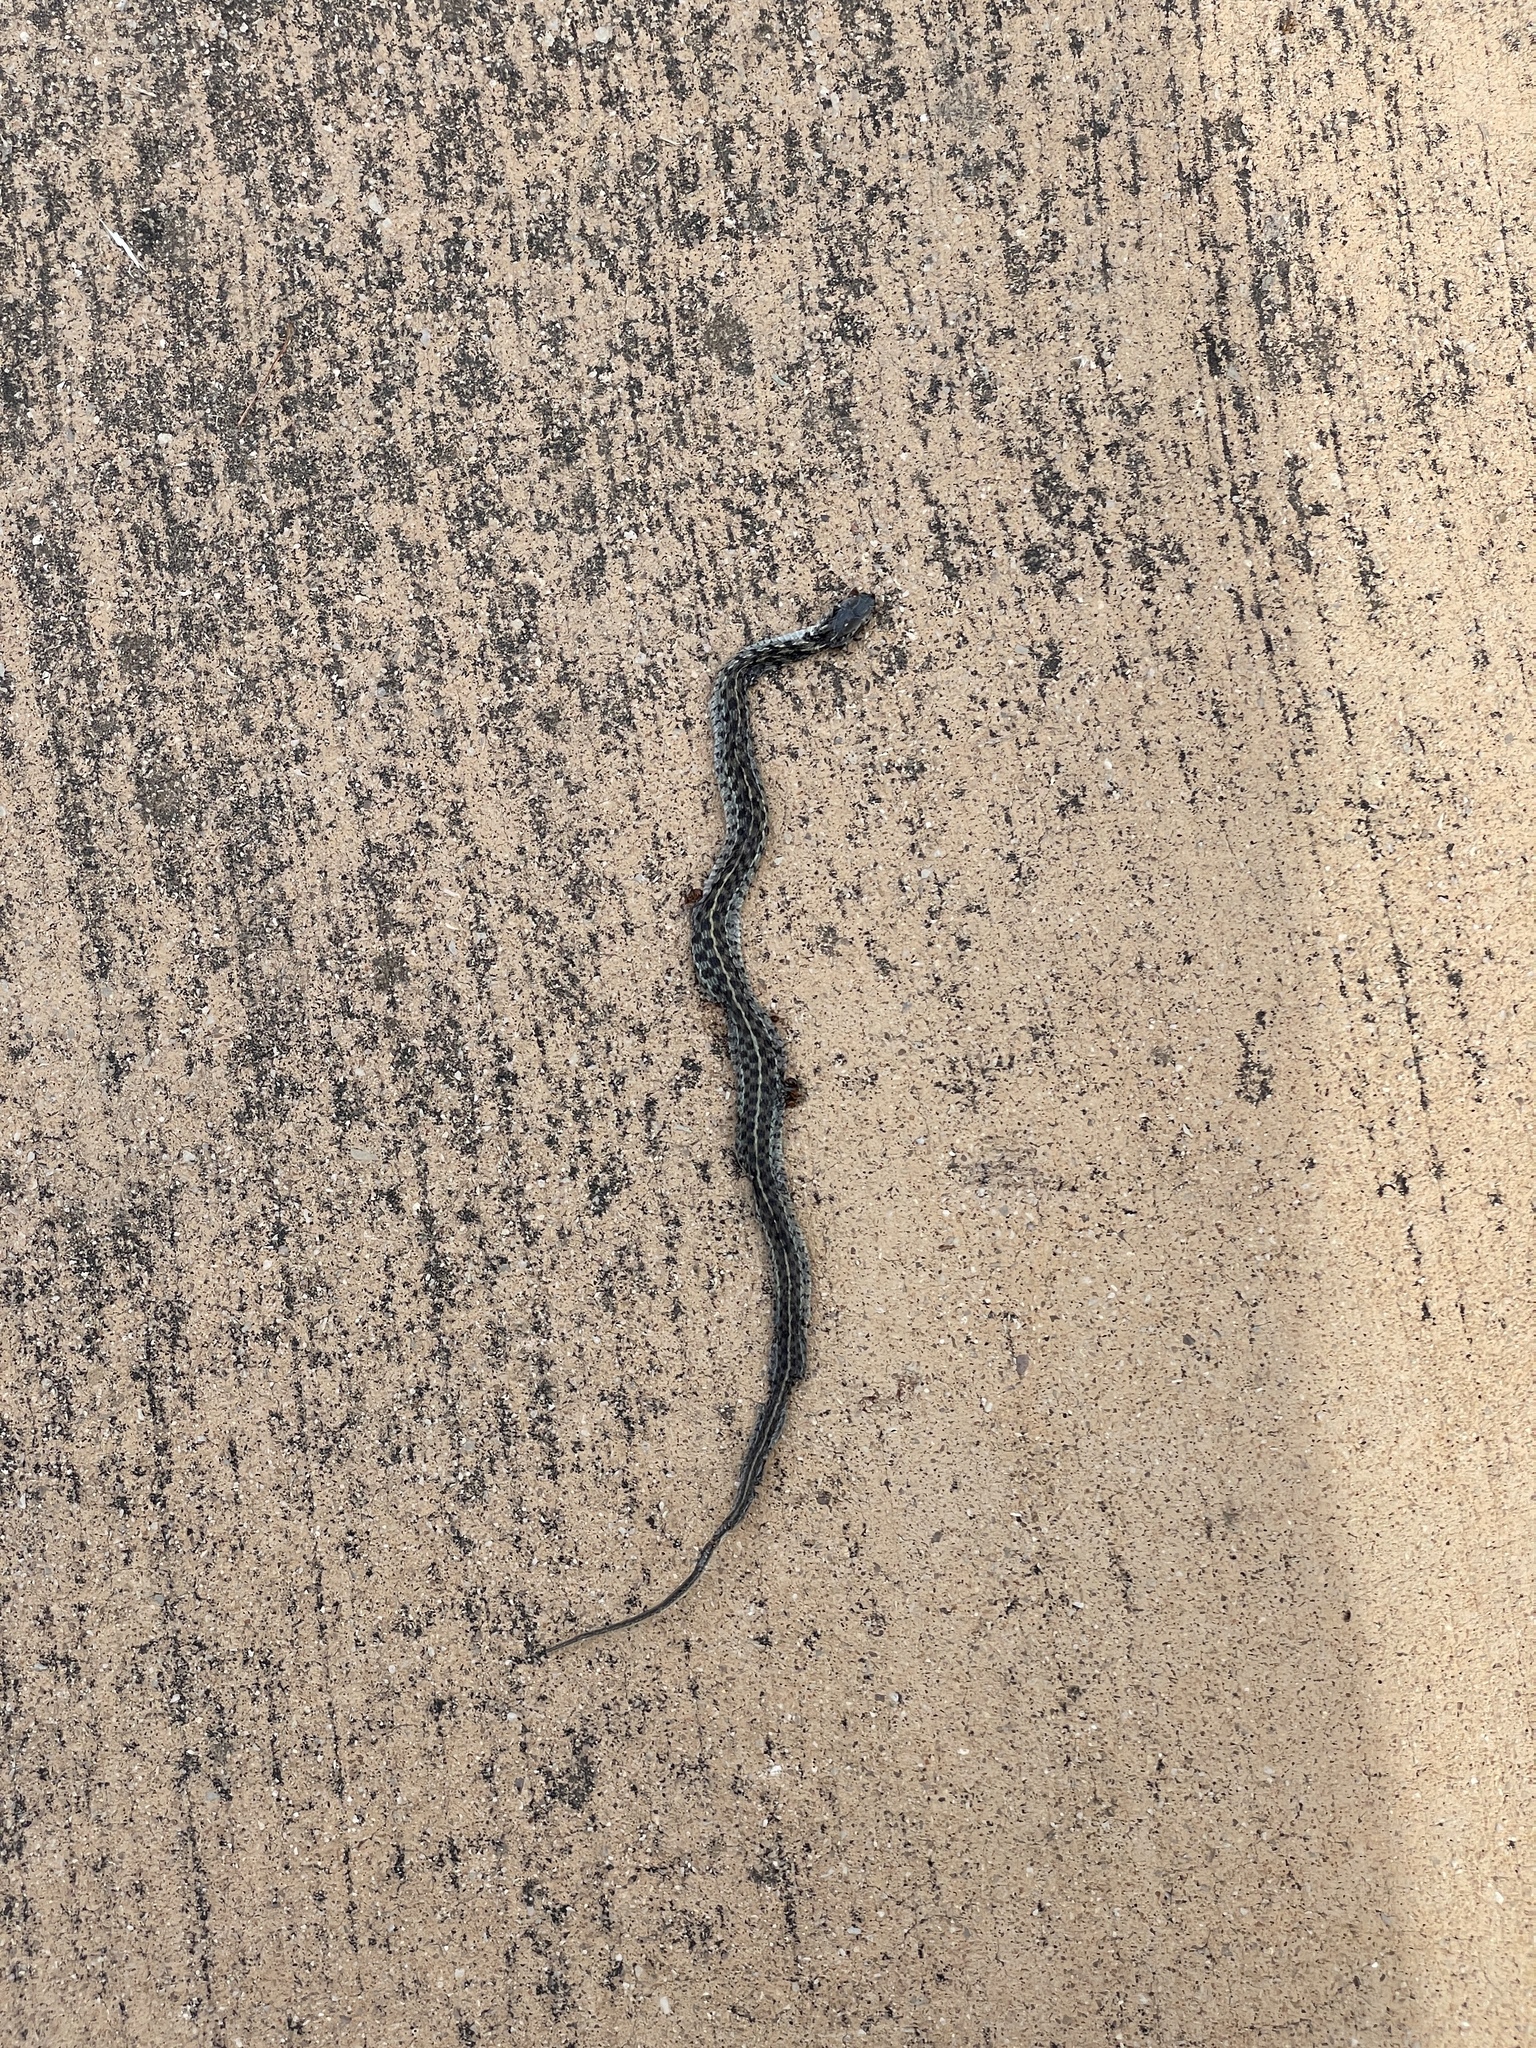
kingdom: Animalia
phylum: Chordata
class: Squamata
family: Colubridae
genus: Thamnophis
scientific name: Thamnophis marcianus
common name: Checkered garter snake
